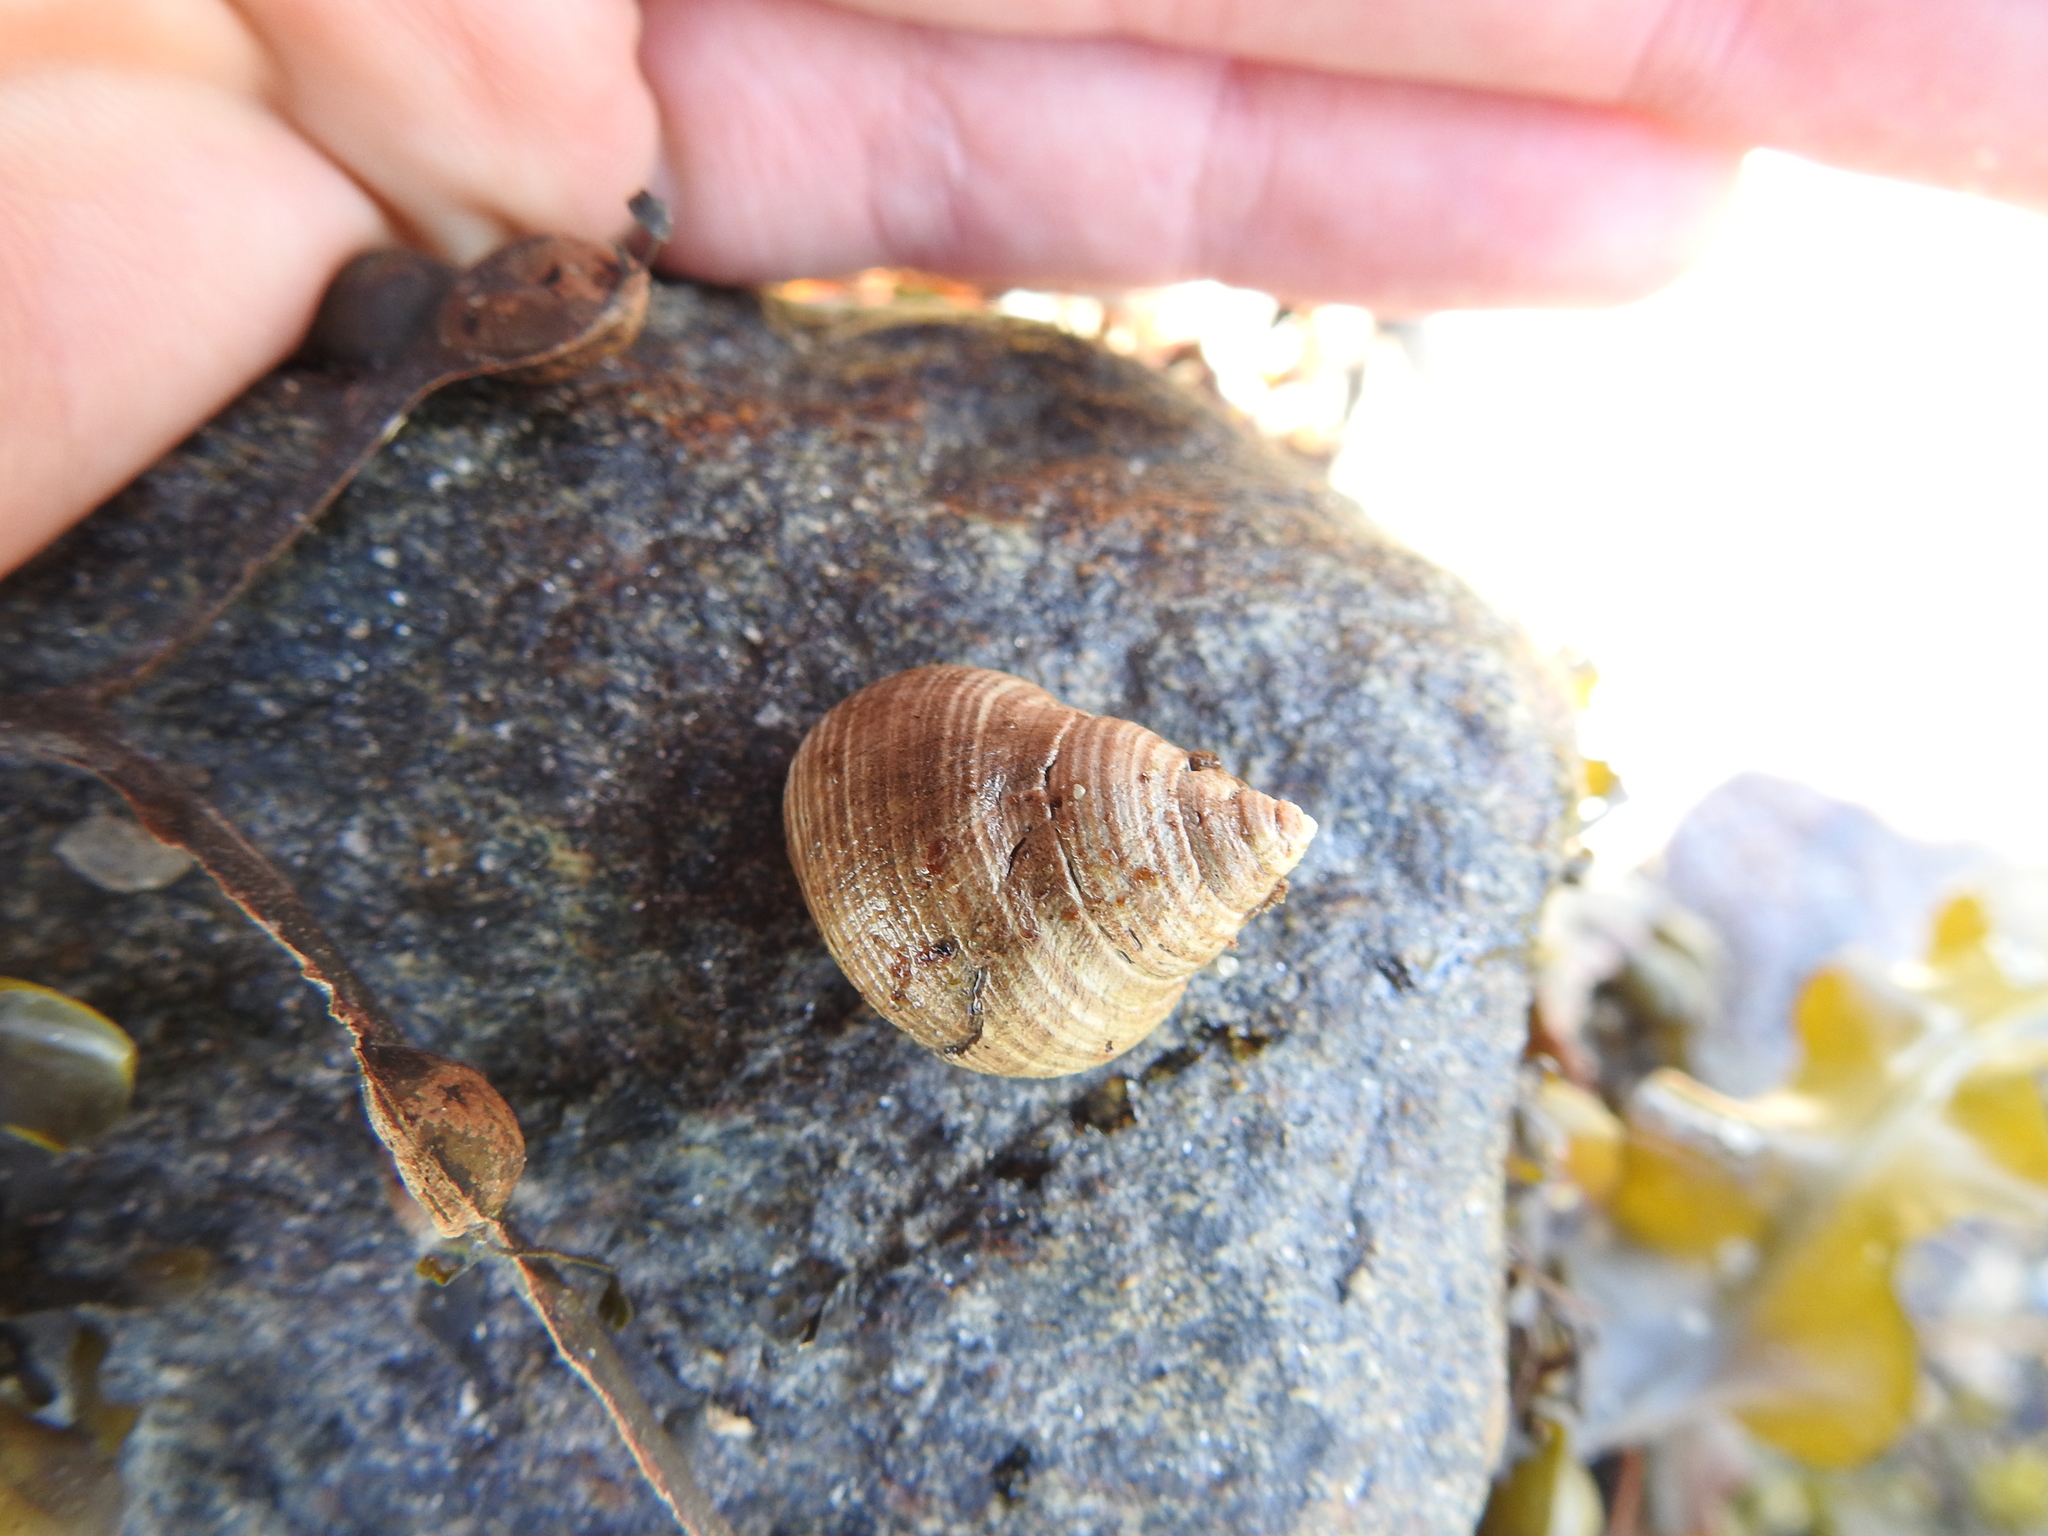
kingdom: Animalia
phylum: Mollusca
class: Gastropoda
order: Littorinimorpha
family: Littorinidae
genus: Littorina
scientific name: Littorina littorea
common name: Common periwinkle
